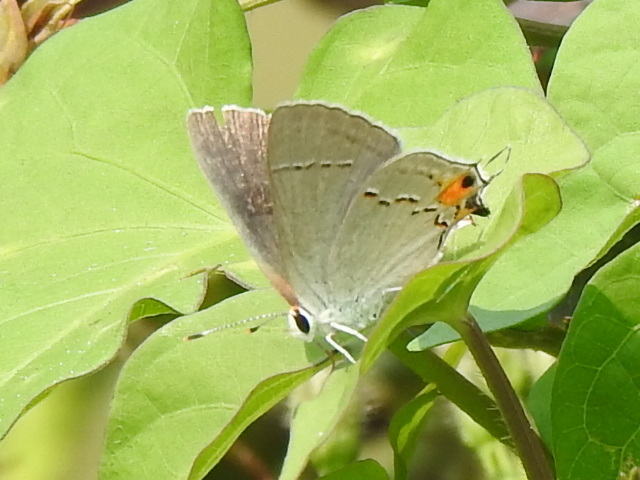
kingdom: Animalia
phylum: Arthropoda
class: Insecta
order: Lepidoptera
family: Lycaenidae
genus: Strymon
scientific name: Strymon melinus
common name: Gray hairstreak
